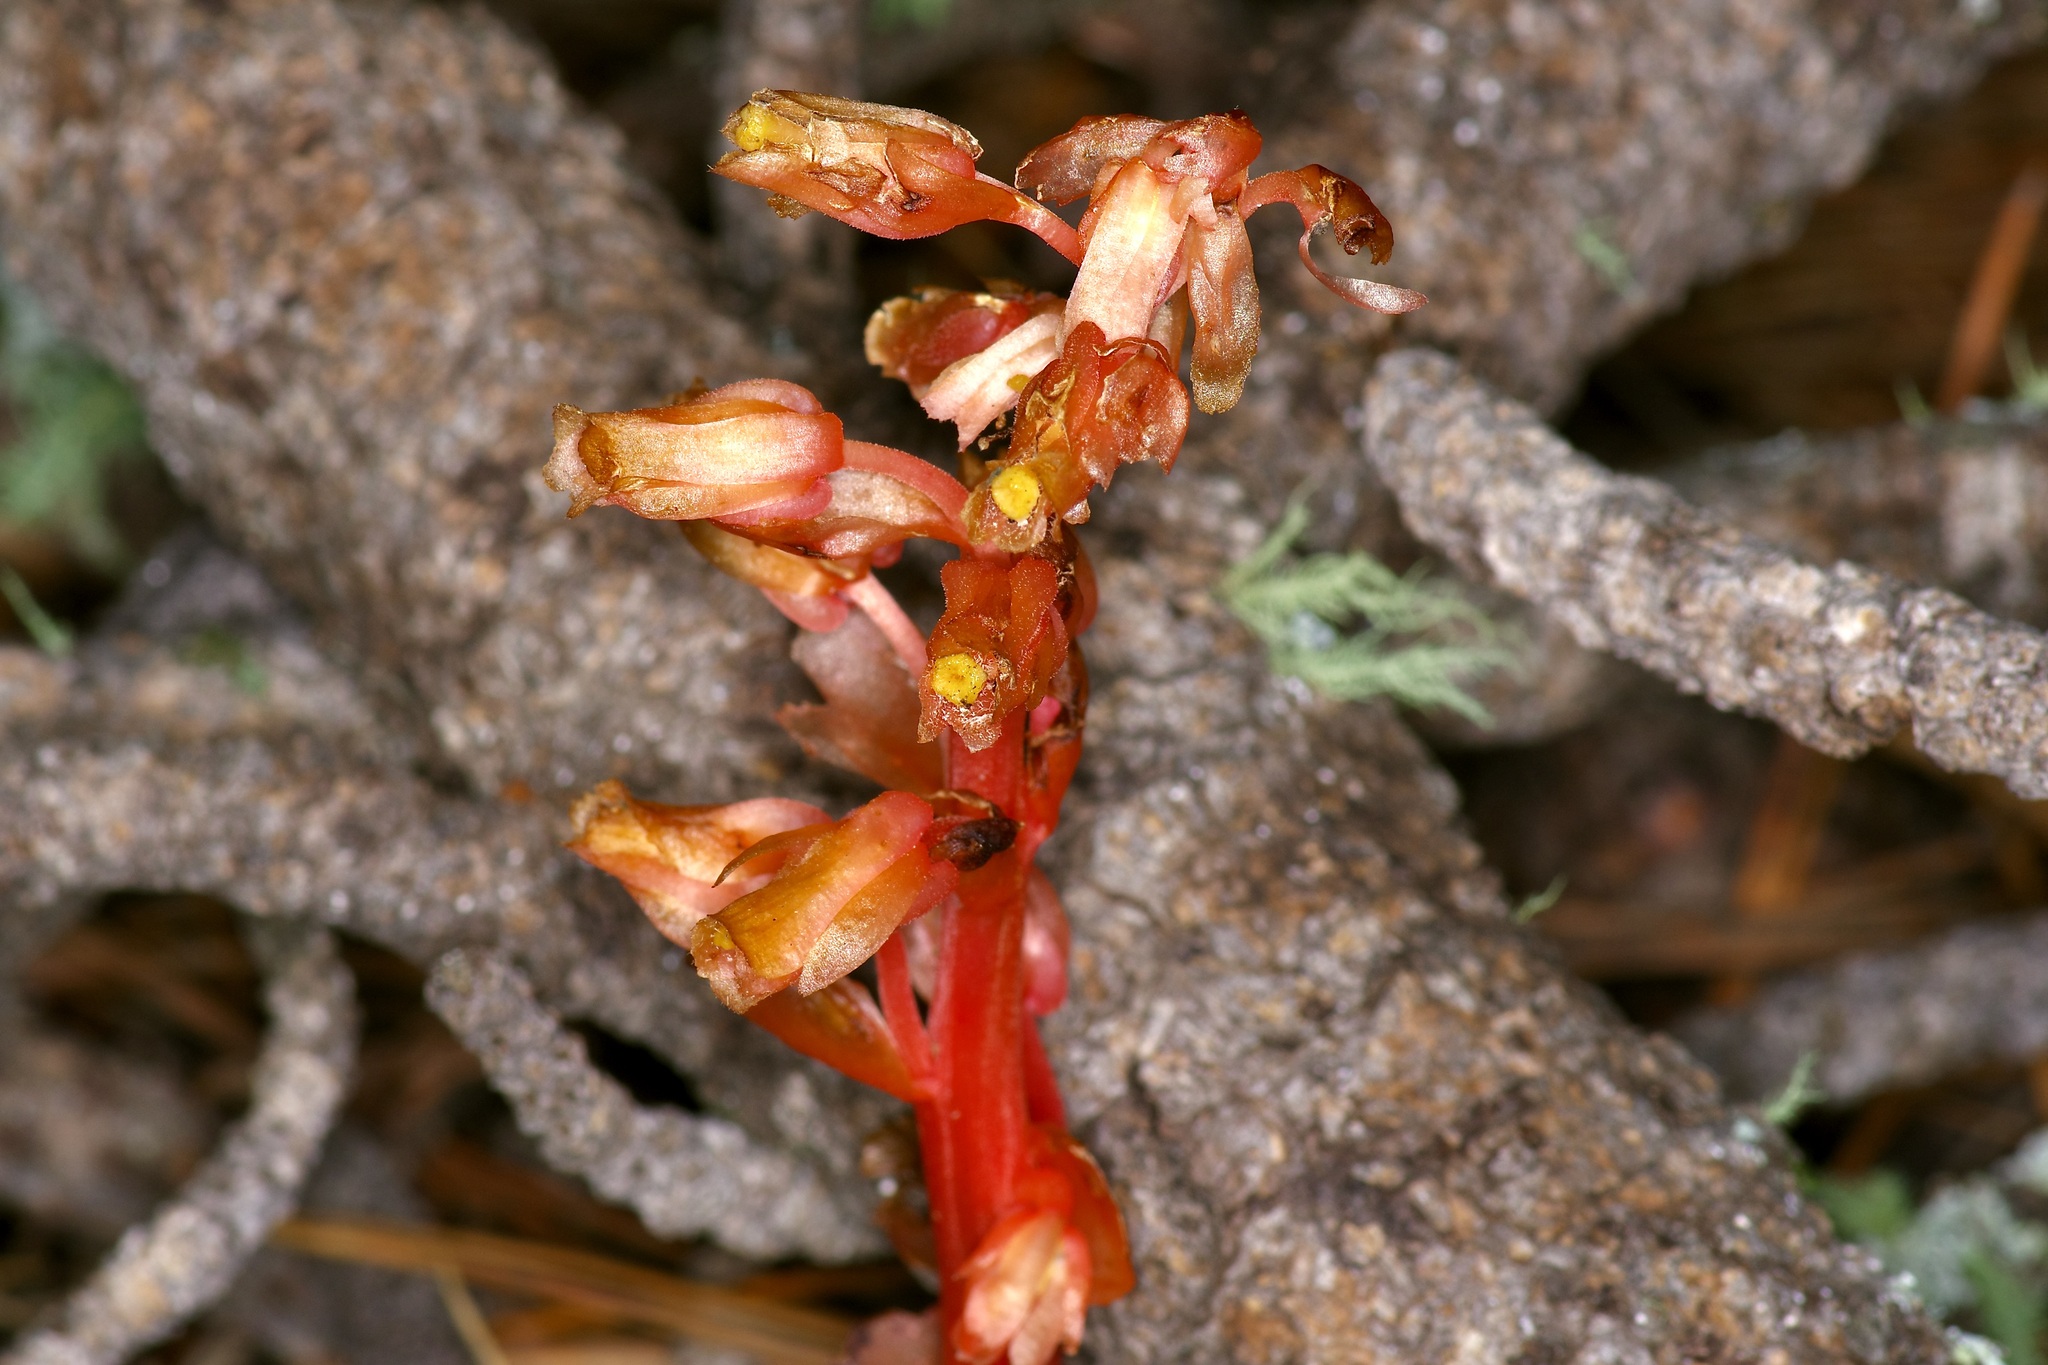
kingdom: Plantae
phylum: Tracheophyta
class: Magnoliopsida
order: Ericales
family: Ericaceae
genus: Hypopitys
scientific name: Hypopitys monotropa
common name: Yellow bird's-nest
